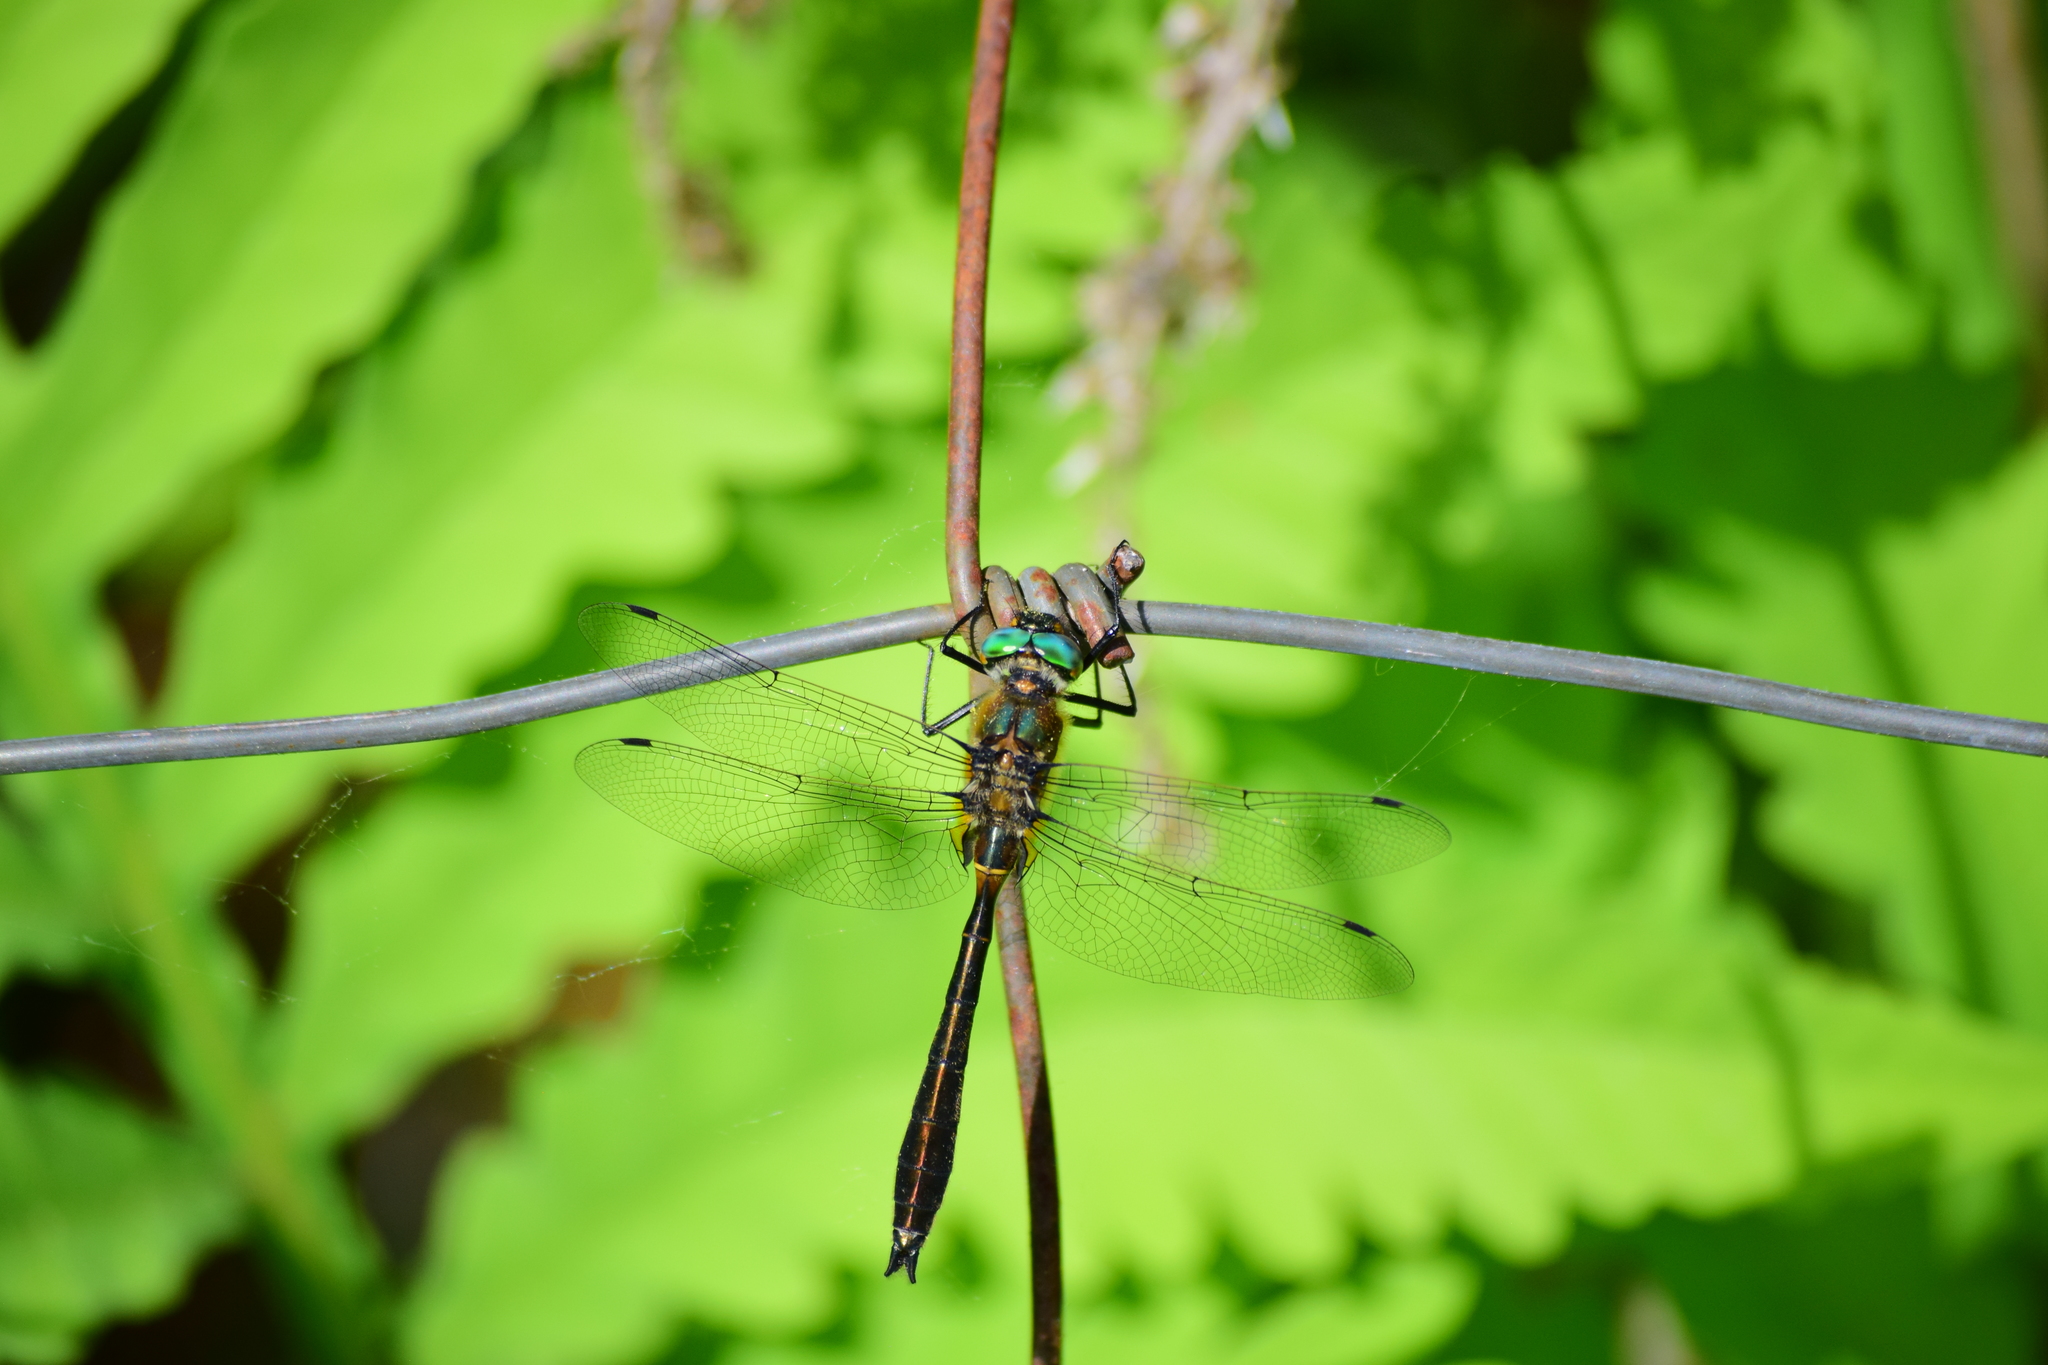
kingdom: Animalia
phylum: Arthropoda
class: Insecta
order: Odonata
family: Corduliidae
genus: Cordulia
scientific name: Cordulia shurtleffii
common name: American emerald
